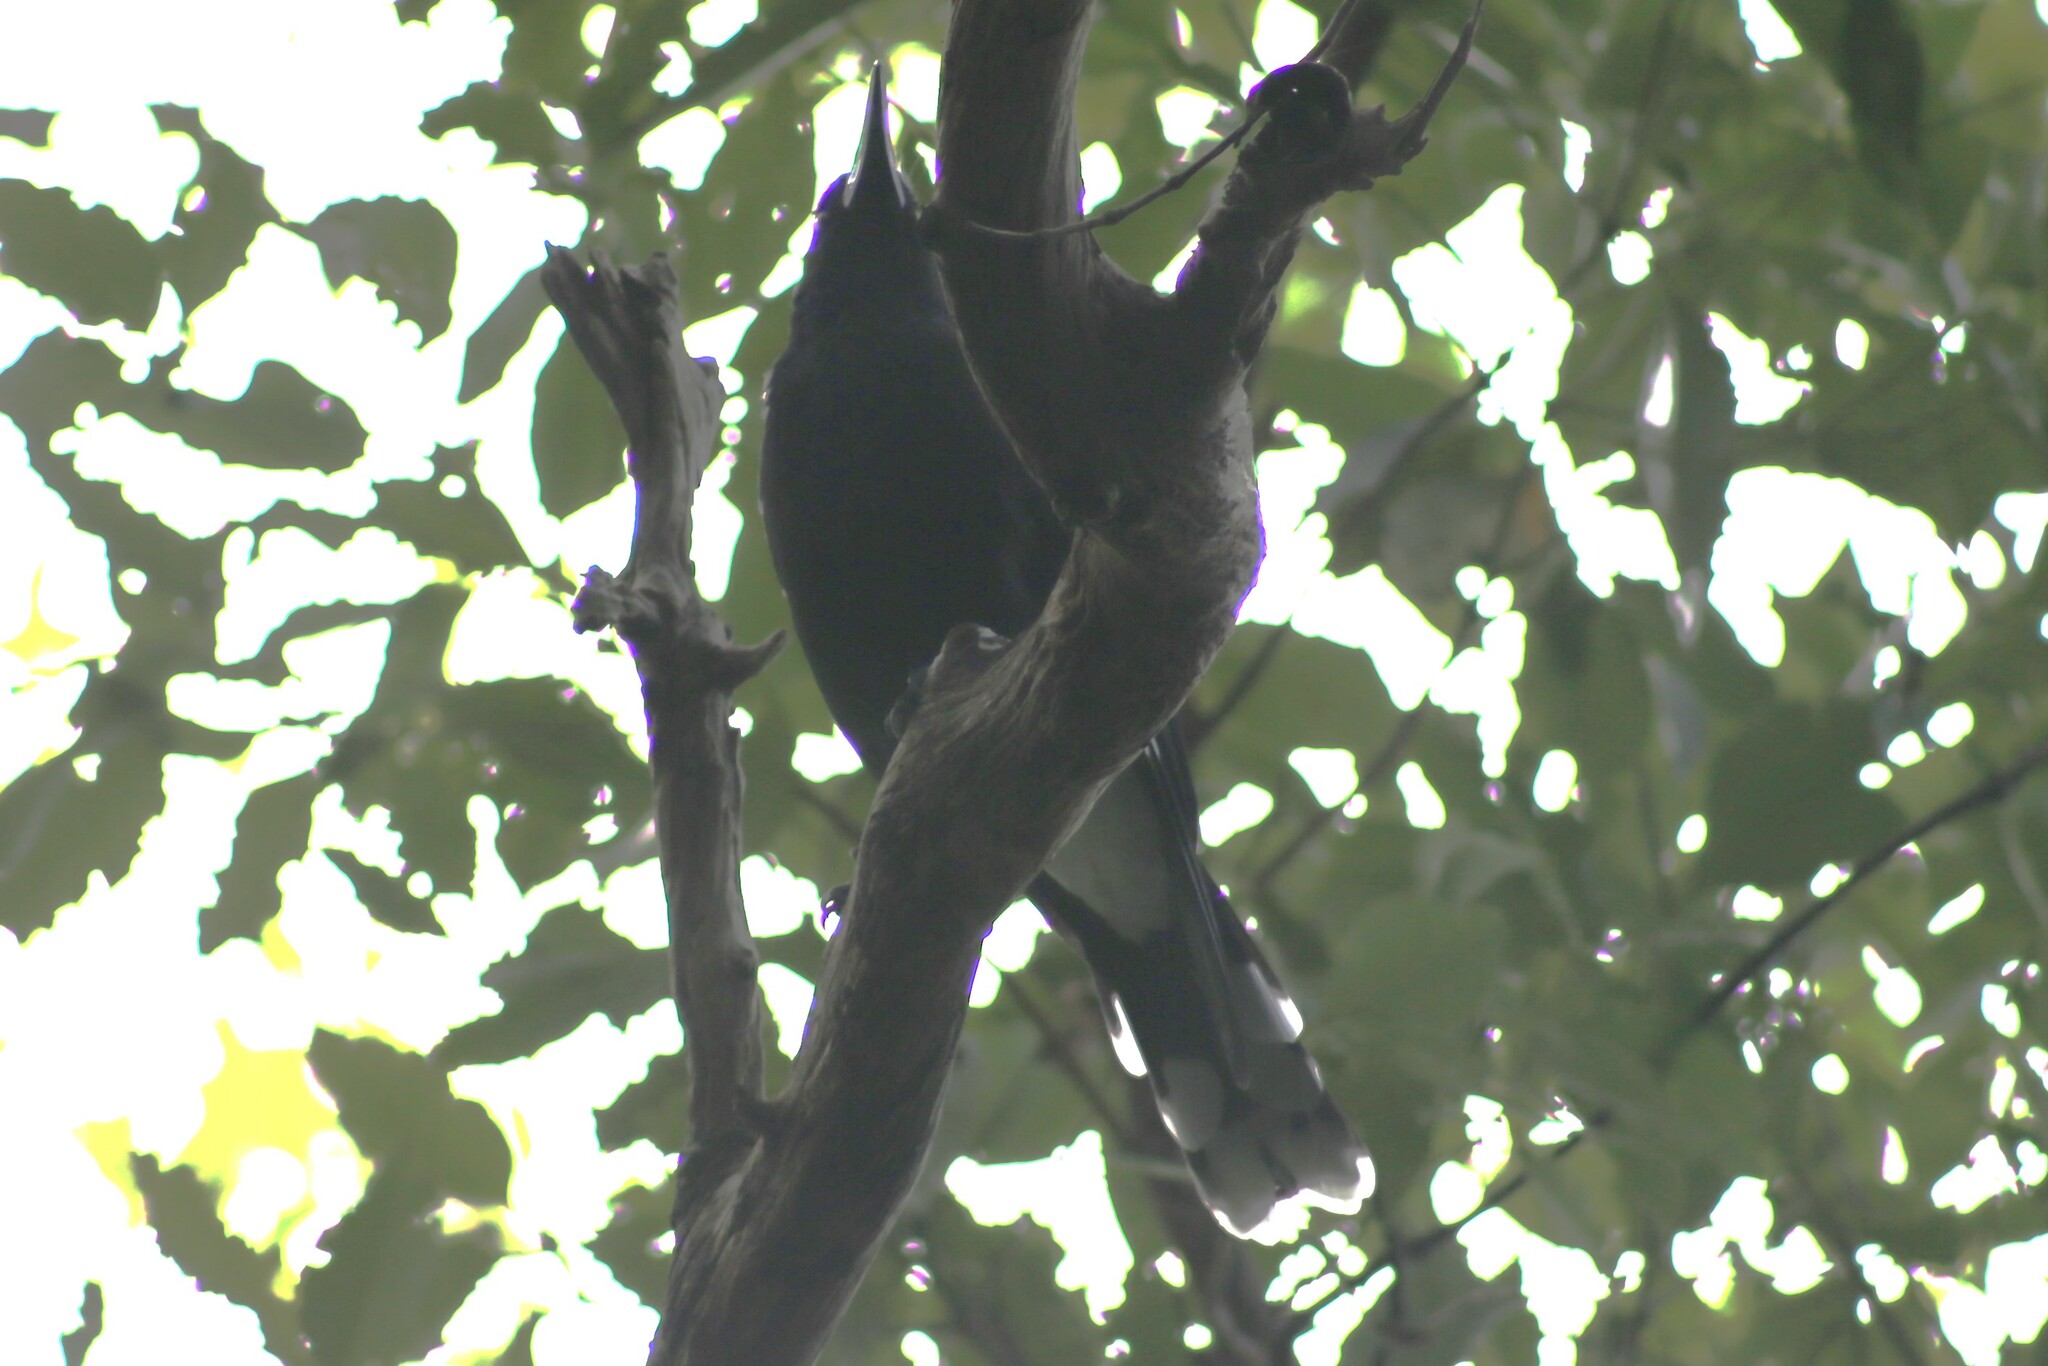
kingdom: Animalia
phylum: Chordata
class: Aves
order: Passeriformes
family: Cracticidae
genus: Strepera
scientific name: Strepera graculina
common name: Pied currawong
